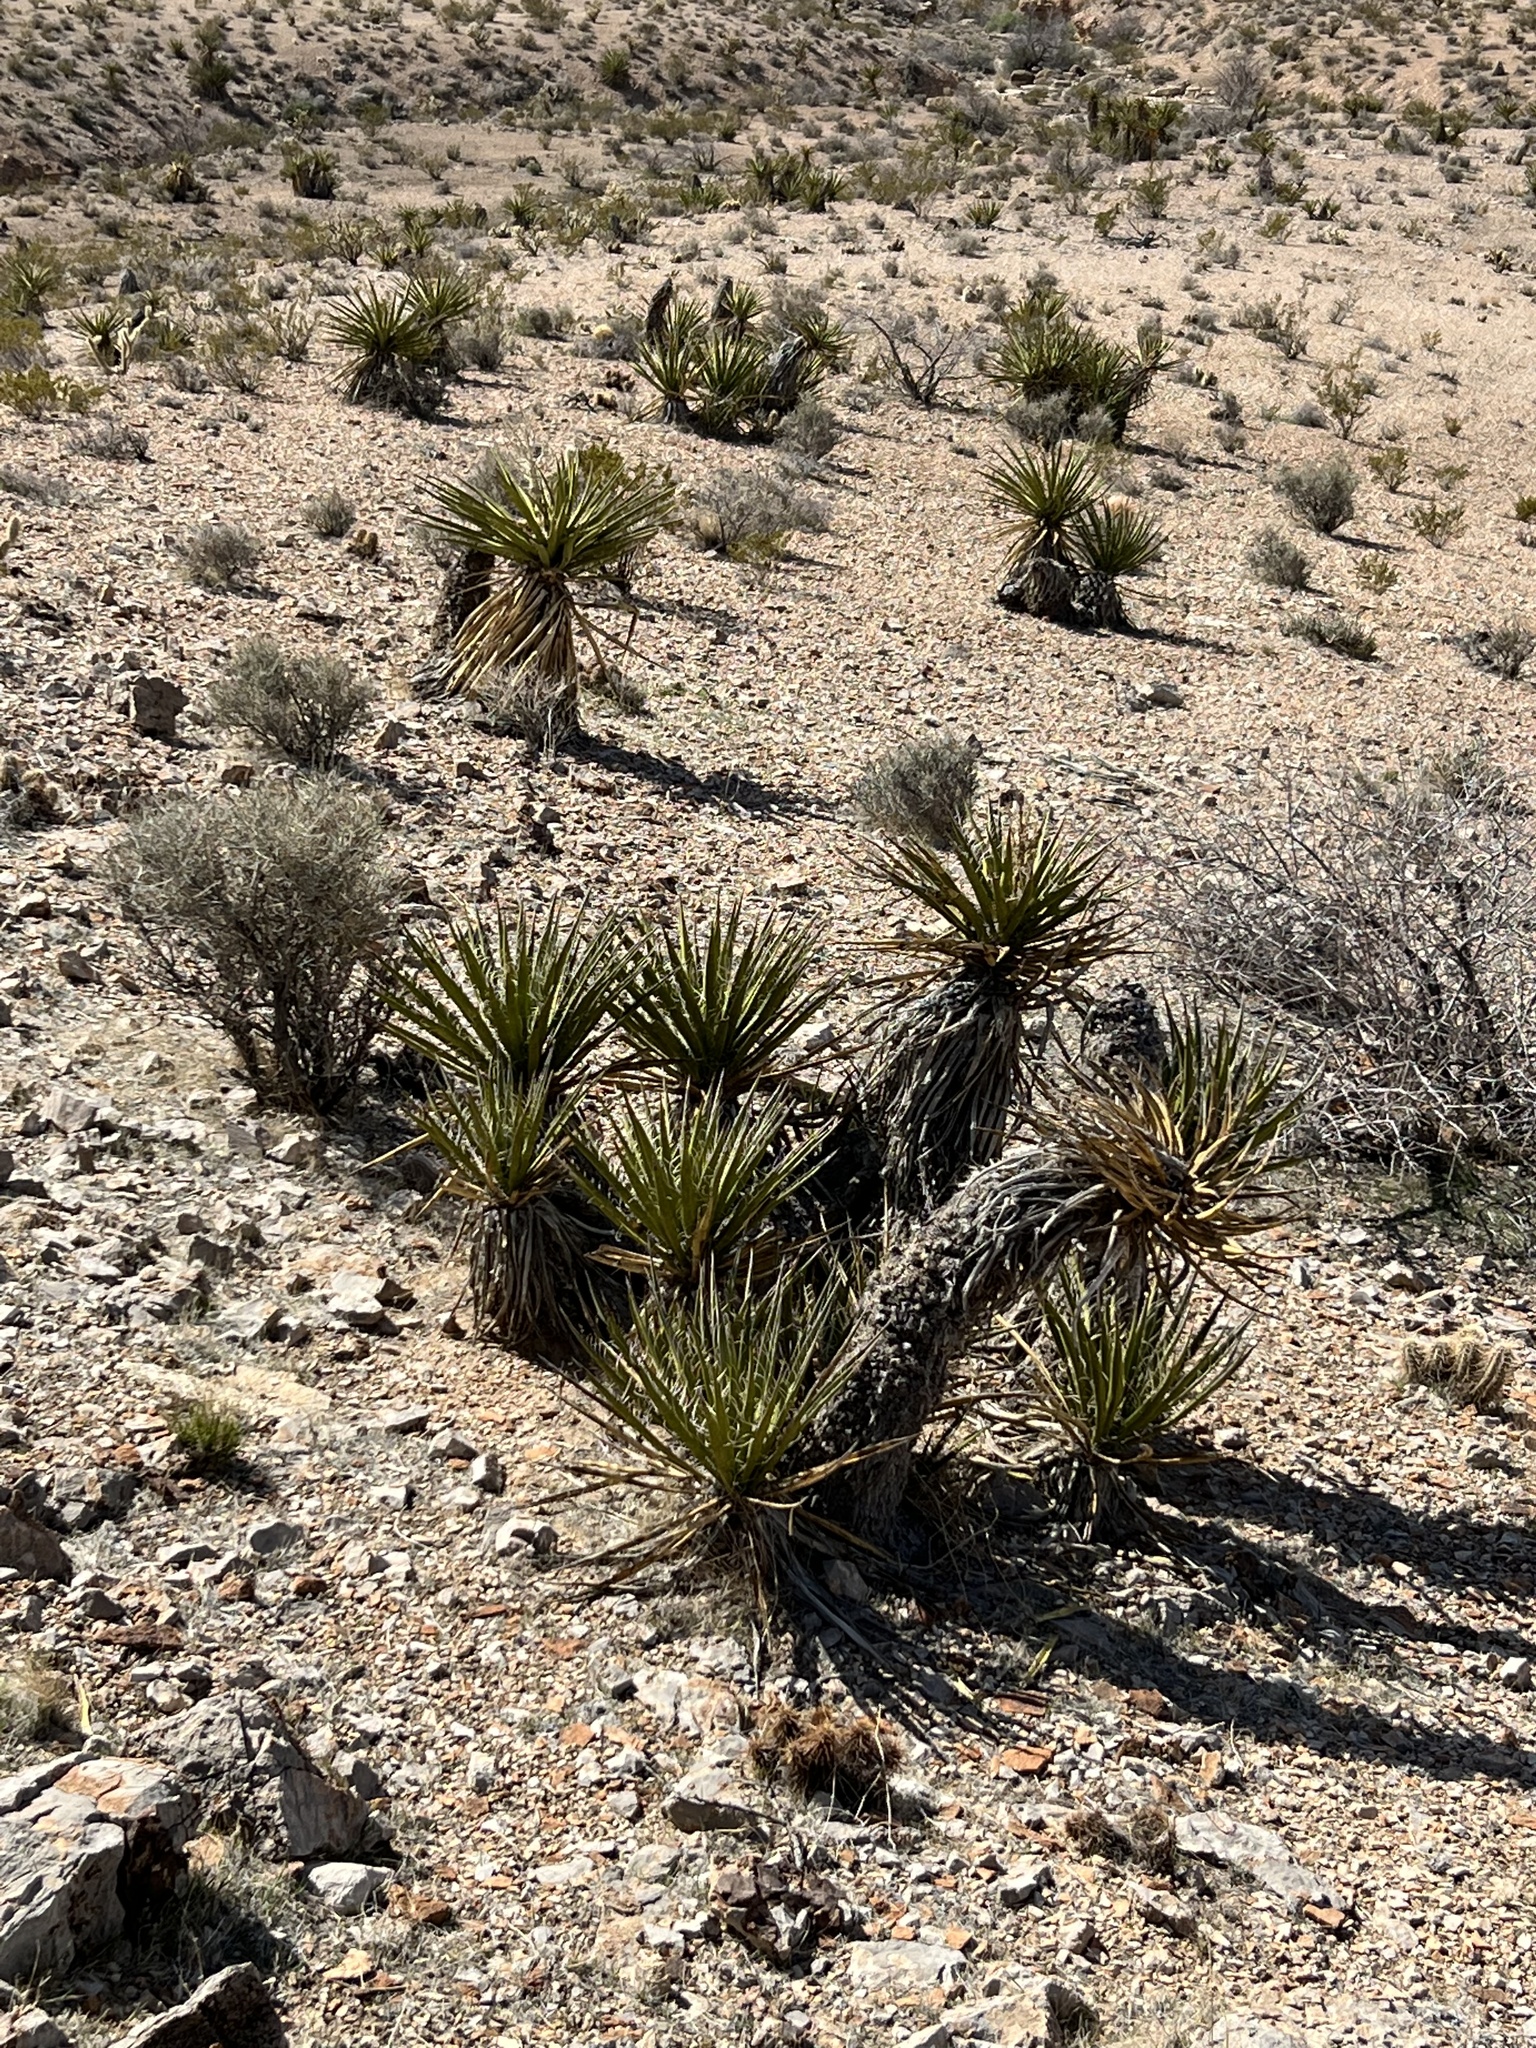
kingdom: Plantae
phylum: Tracheophyta
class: Liliopsida
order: Asparagales
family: Asparagaceae
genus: Yucca
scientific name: Yucca schidigera
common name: Mojave yucca
